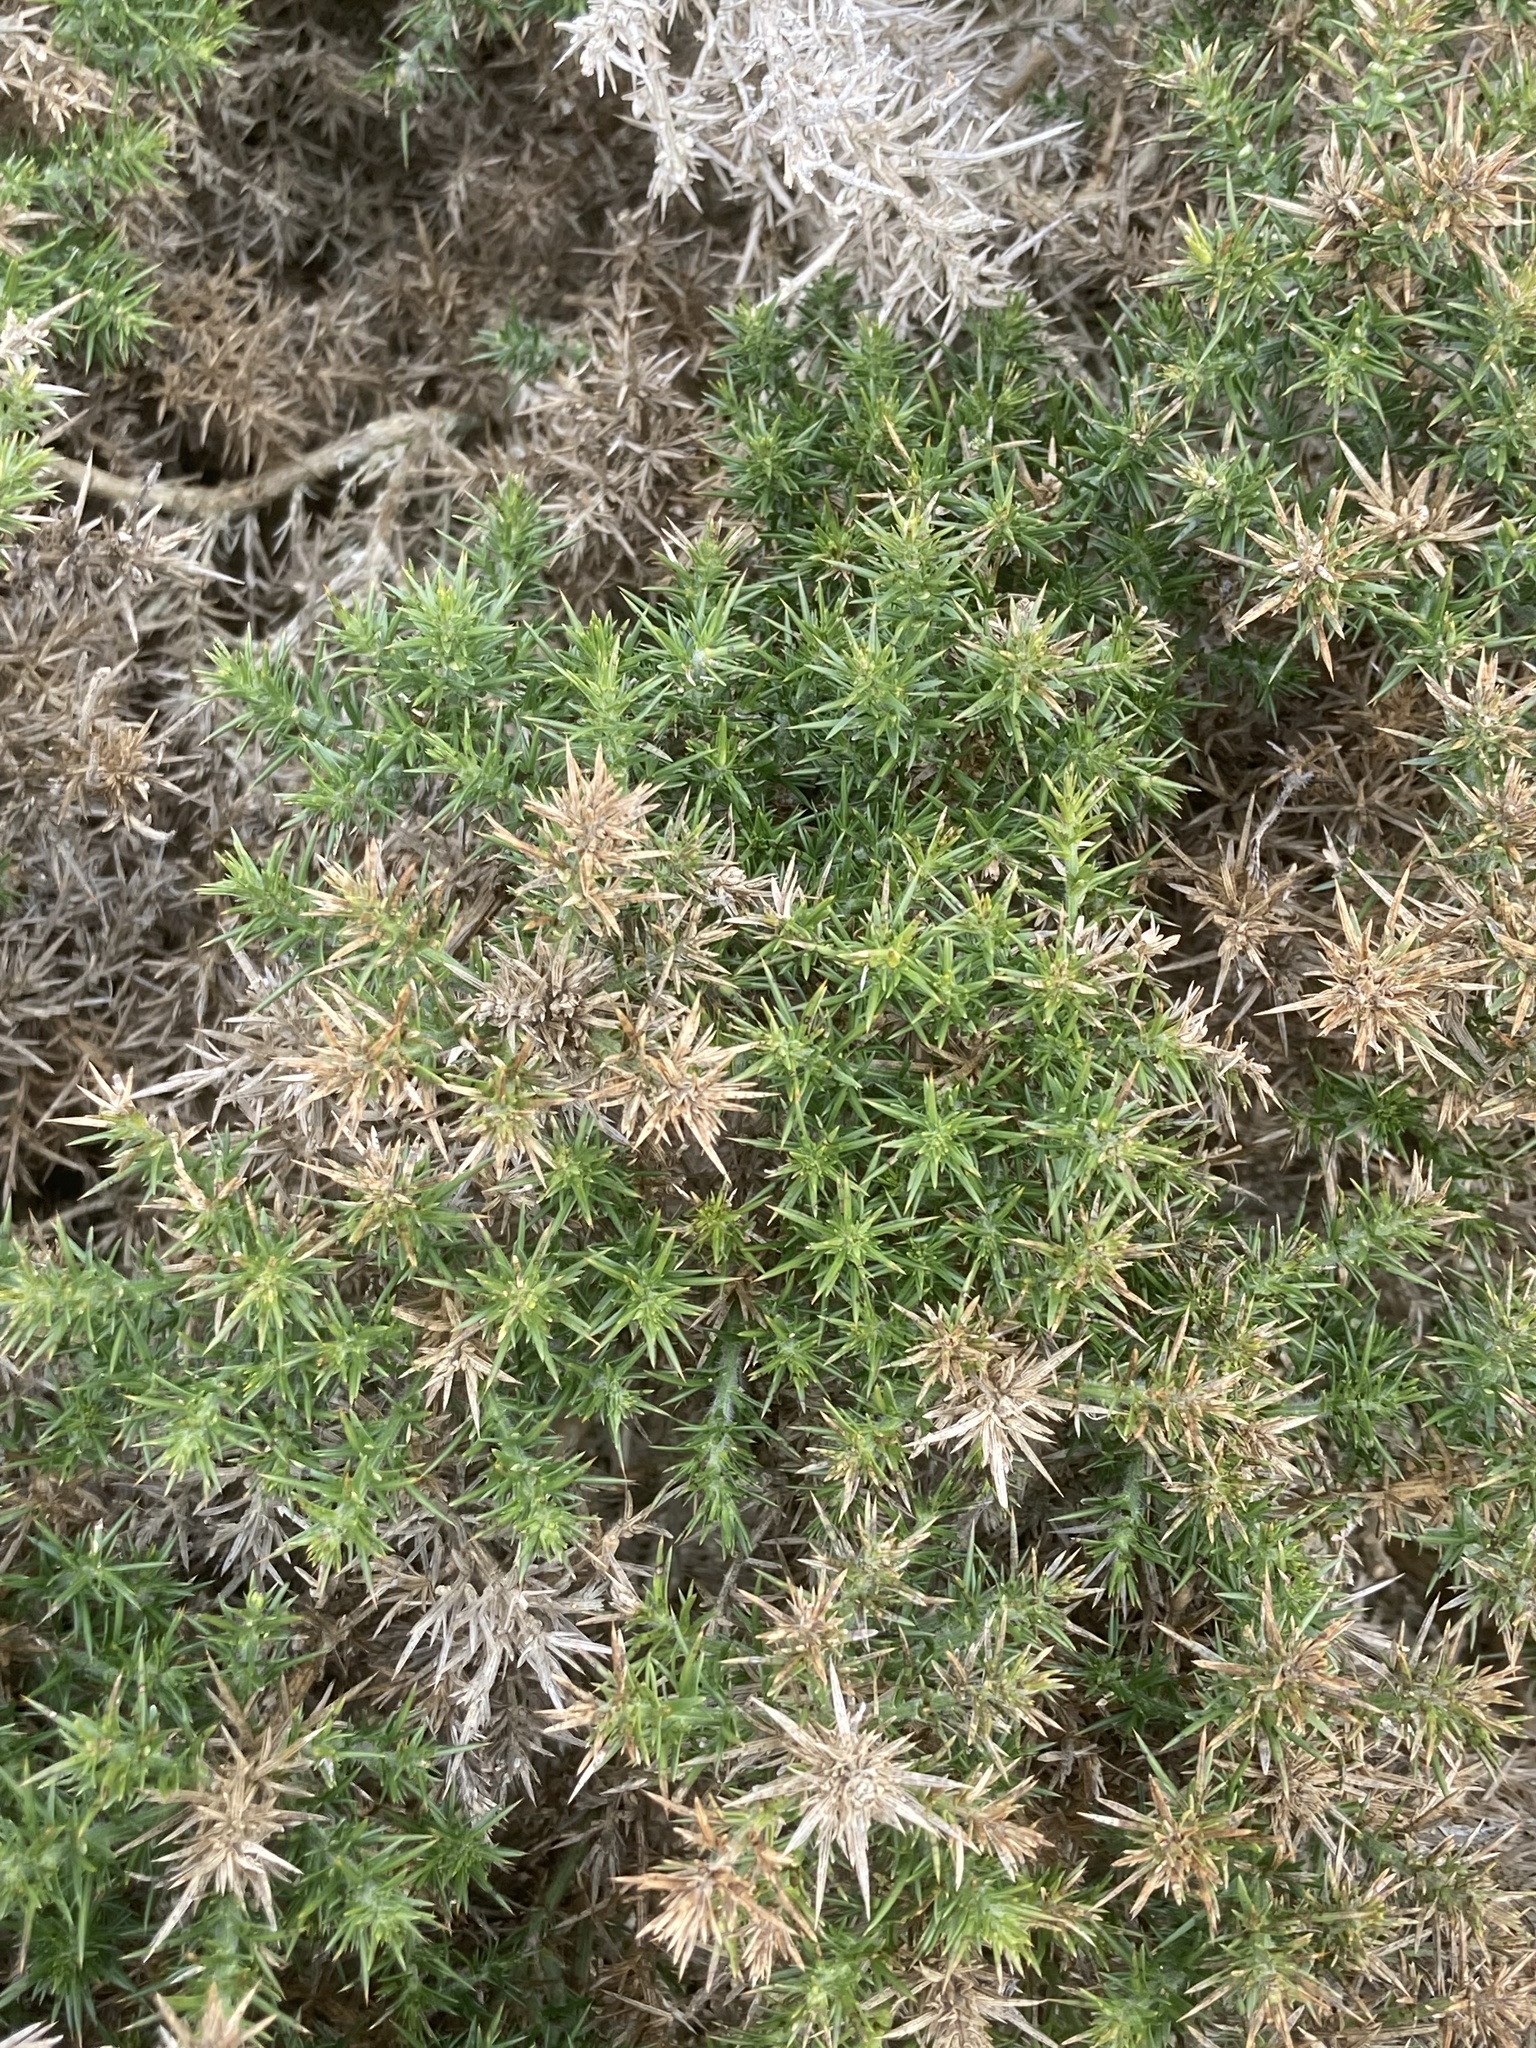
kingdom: Plantae
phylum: Tracheophyta
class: Magnoliopsida
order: Fabales
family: Fabaceae
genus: Ulex
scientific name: Ulex europaeus
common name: Common gorse
